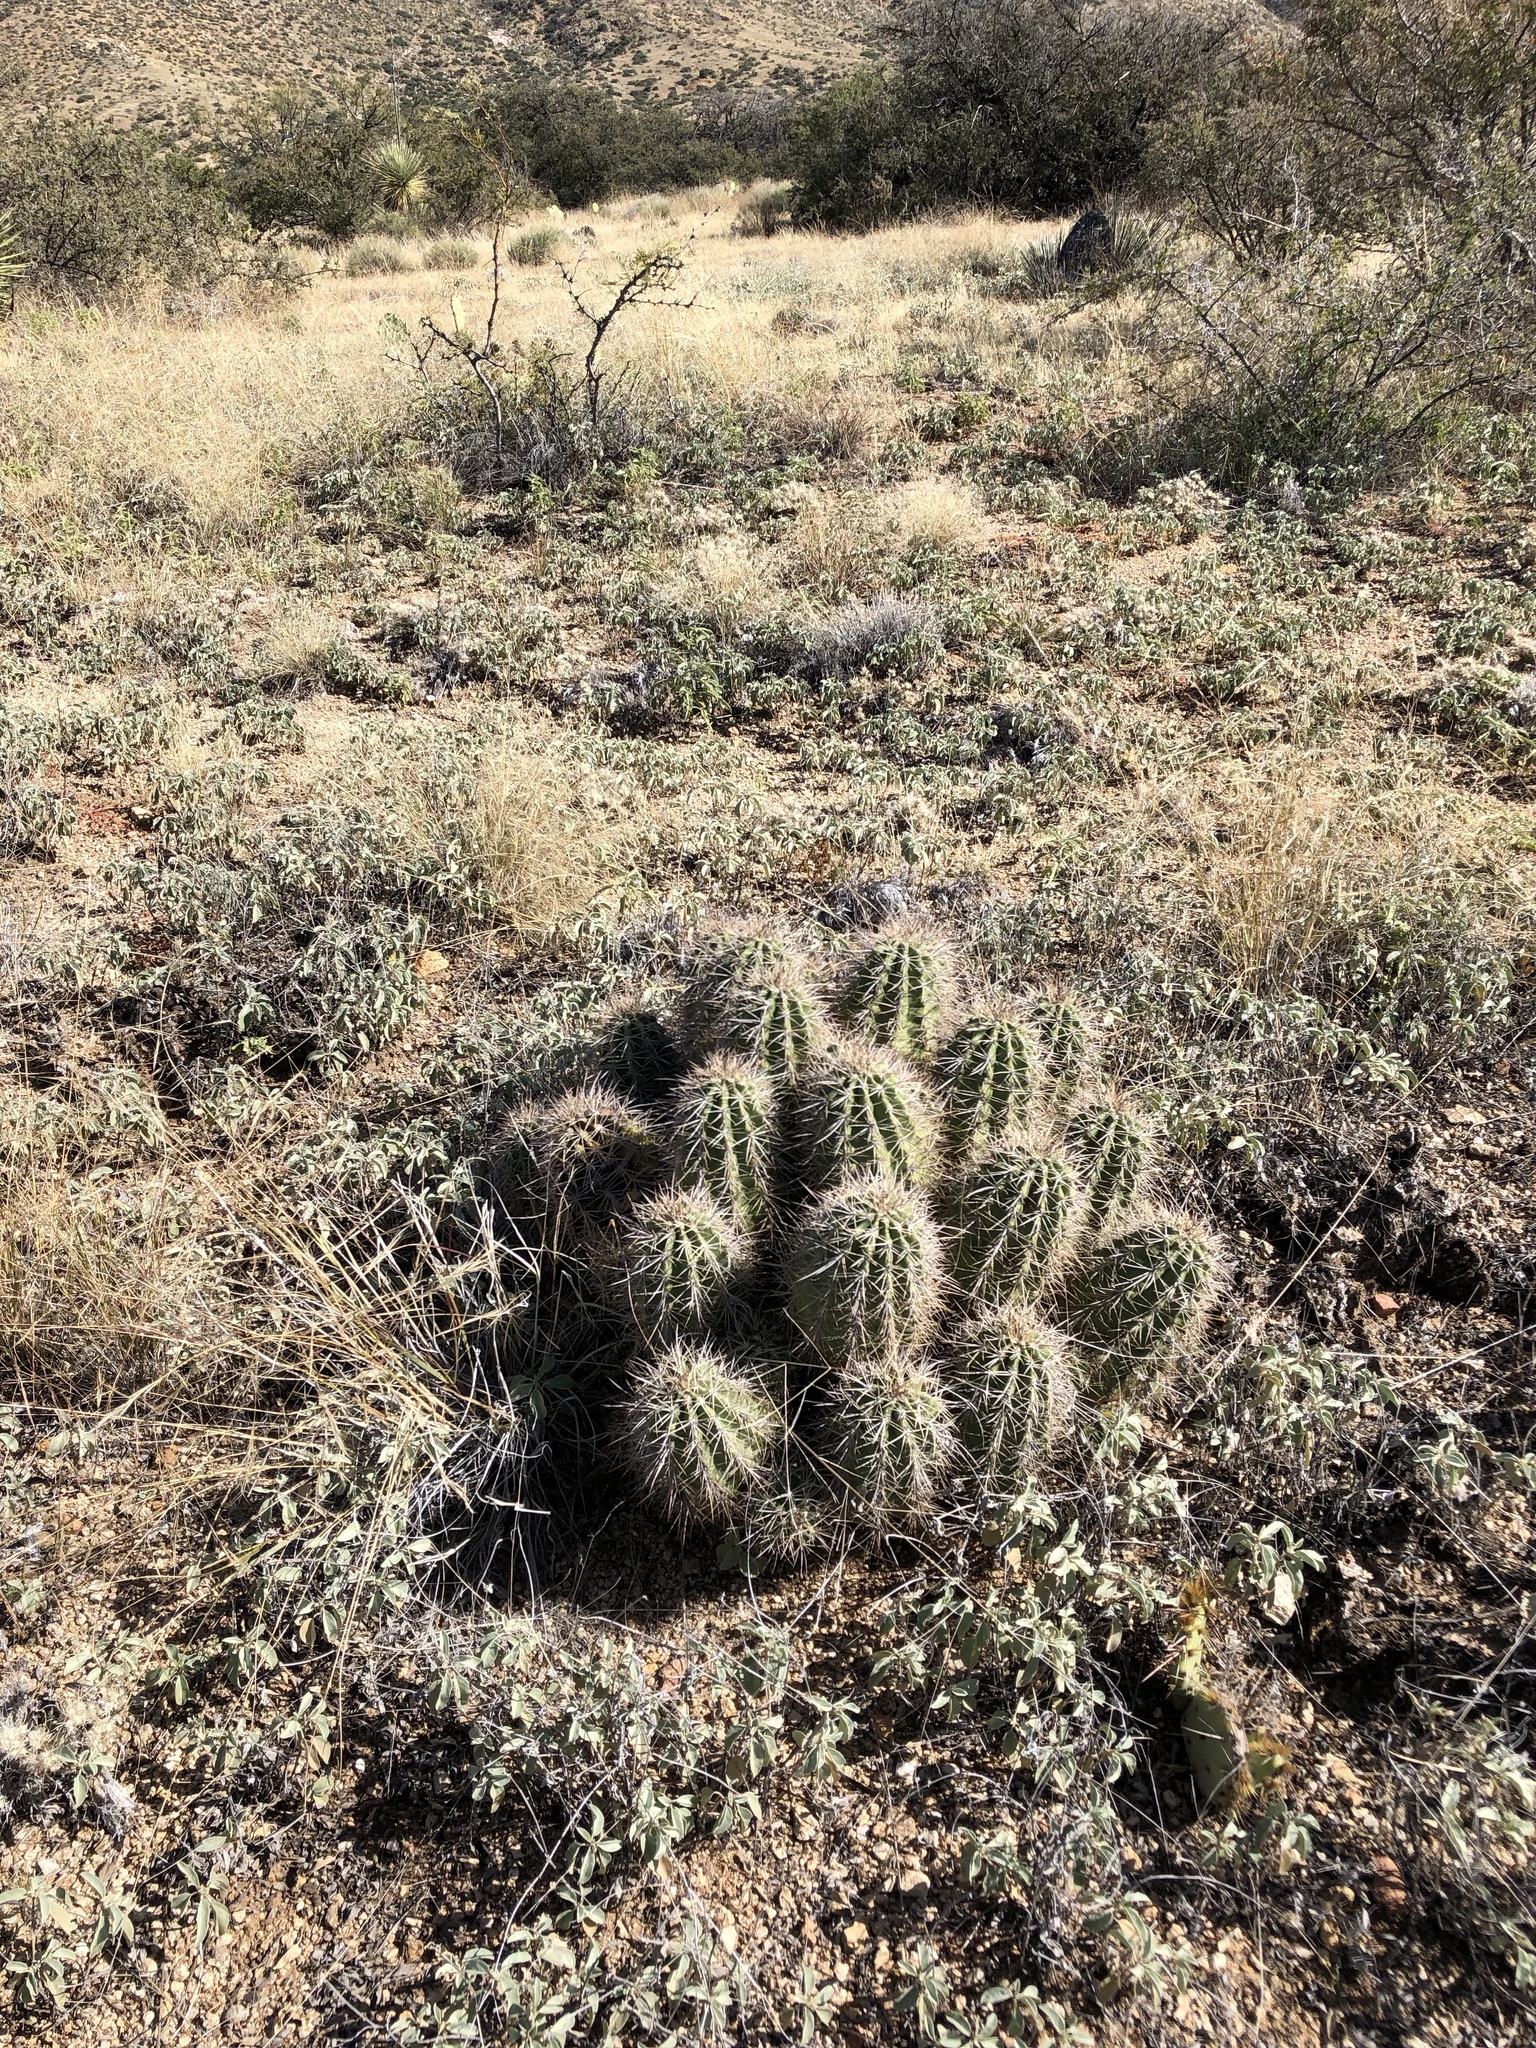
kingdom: Plantae
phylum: Tracheophyta
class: Magnoliopsida
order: Caryophyllales
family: Cactaceae
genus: Echinocereus
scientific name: Echinocereus coccineus
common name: Scarlet hedgehog cactus
